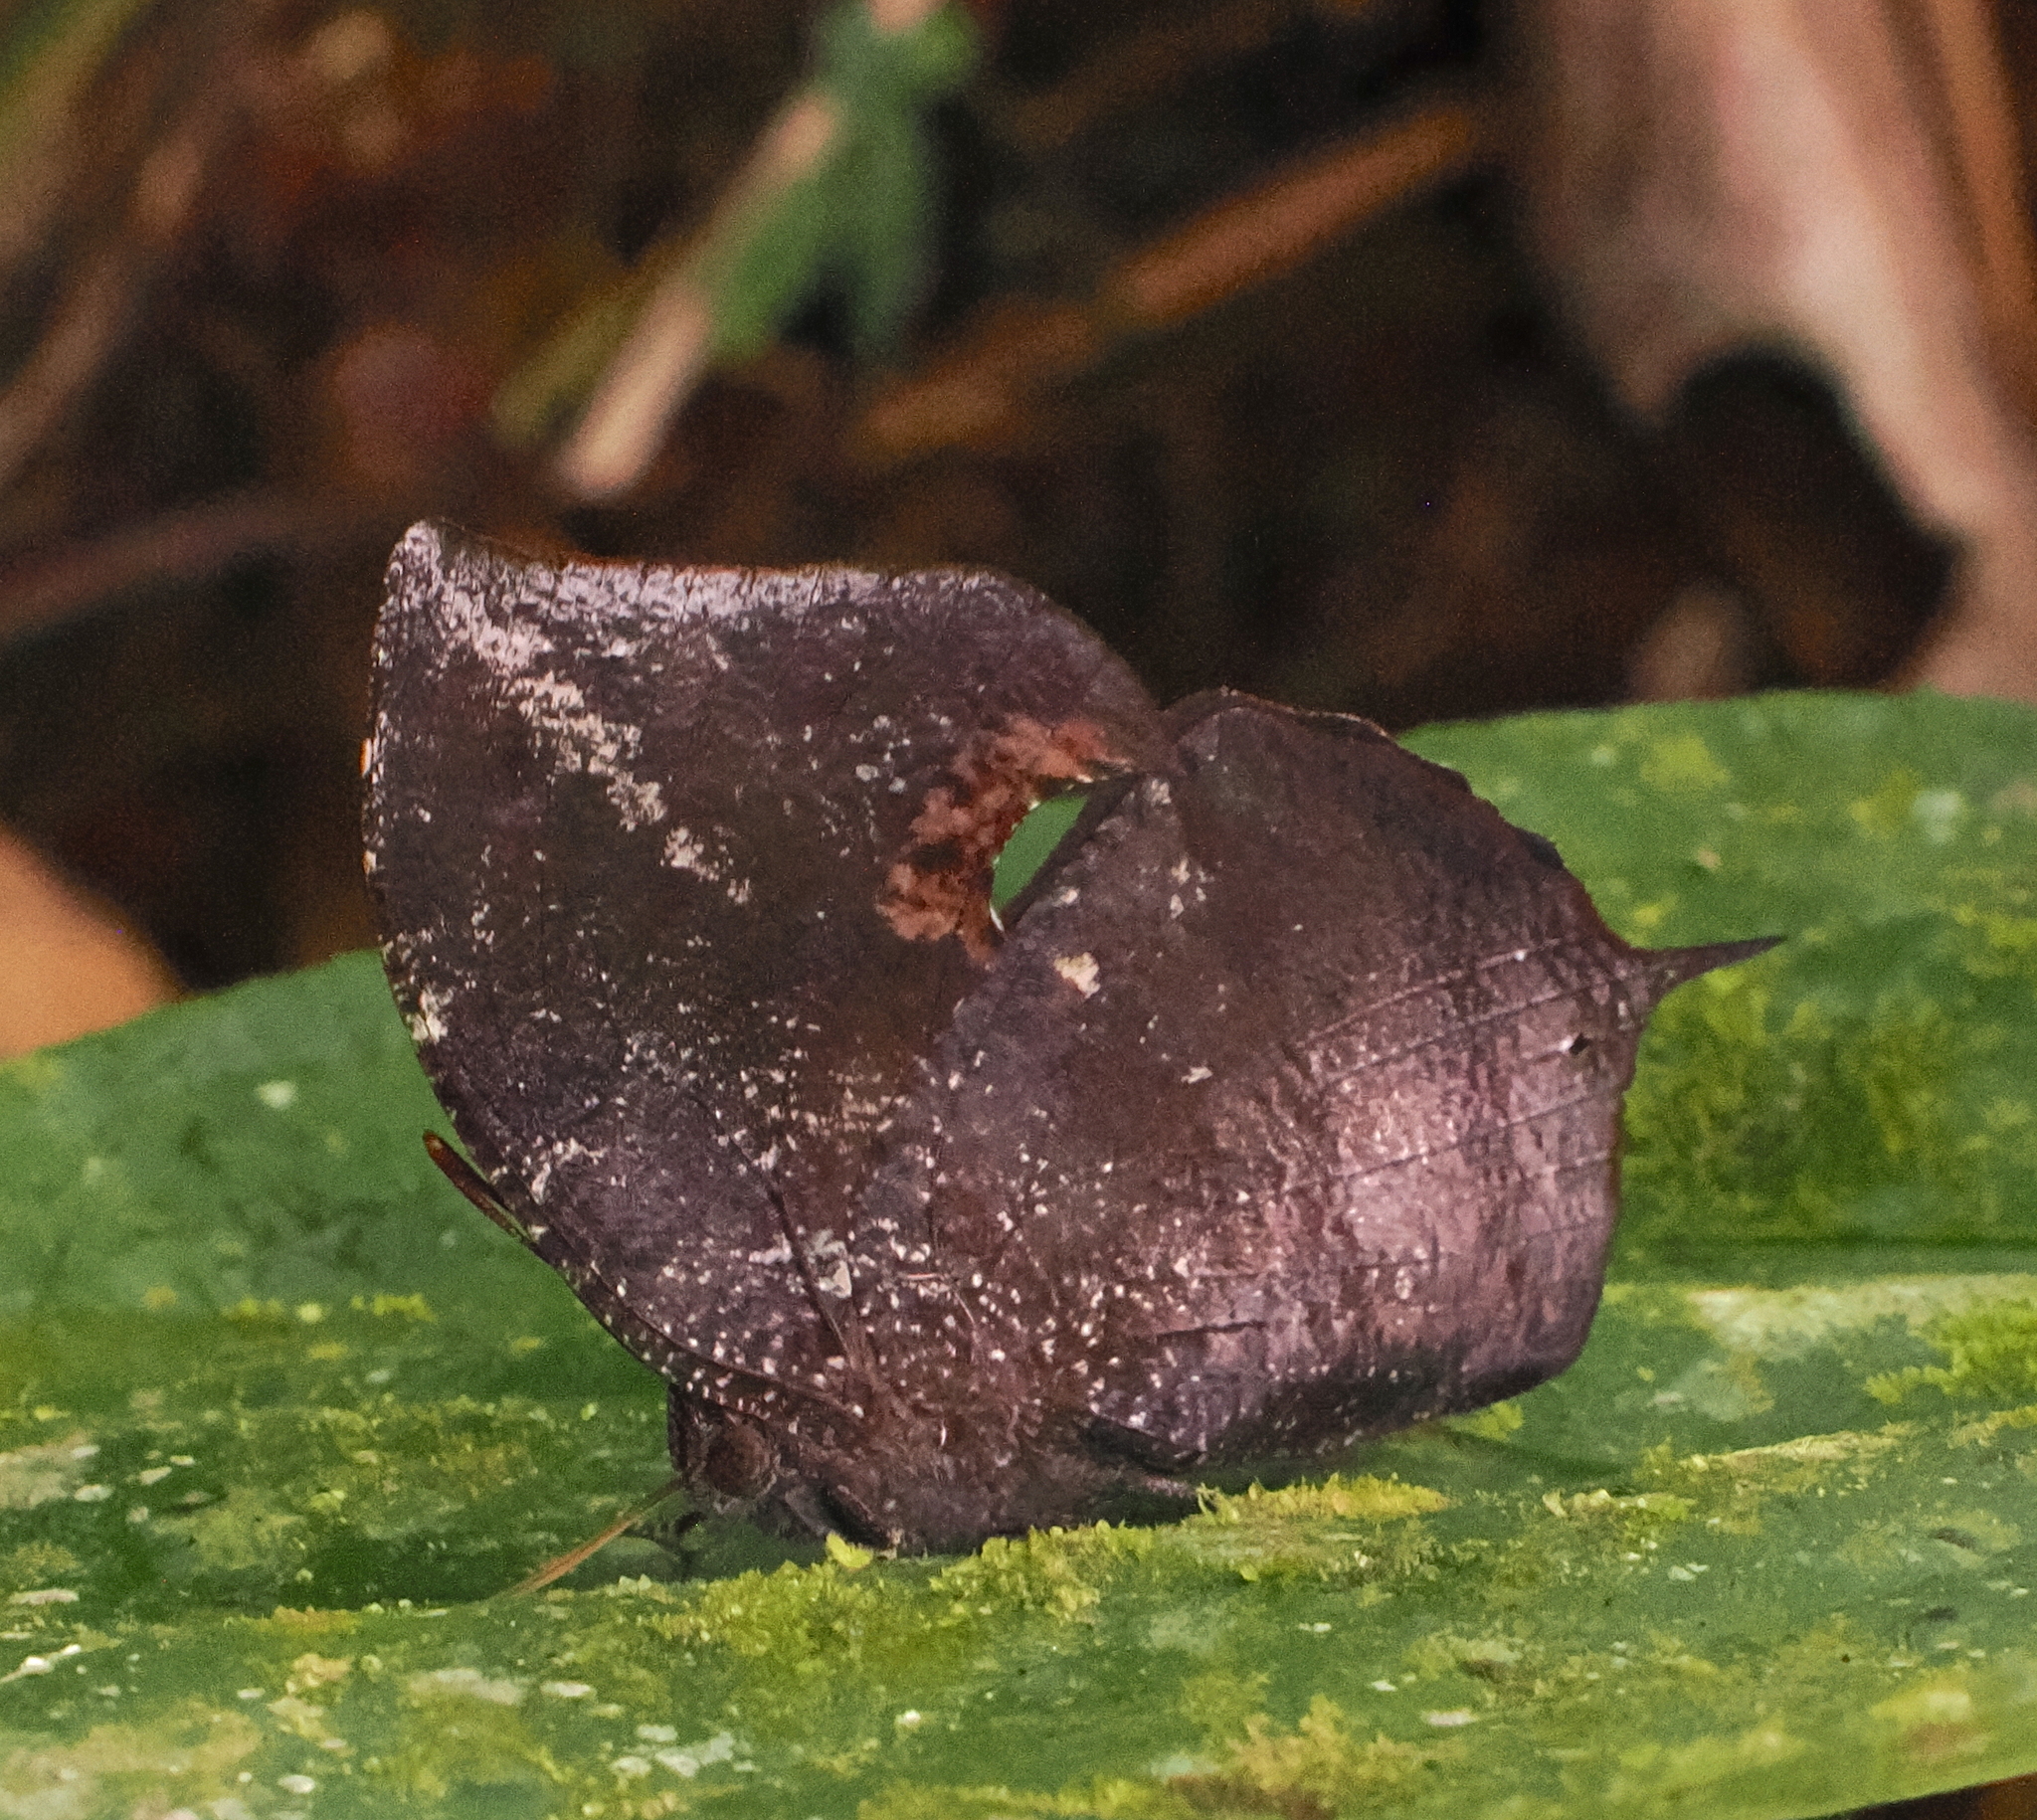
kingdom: Animalia
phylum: Arthropoda
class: Insecta
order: Lepidoptera
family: Nymphalidae
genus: Memphis
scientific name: Memphis
